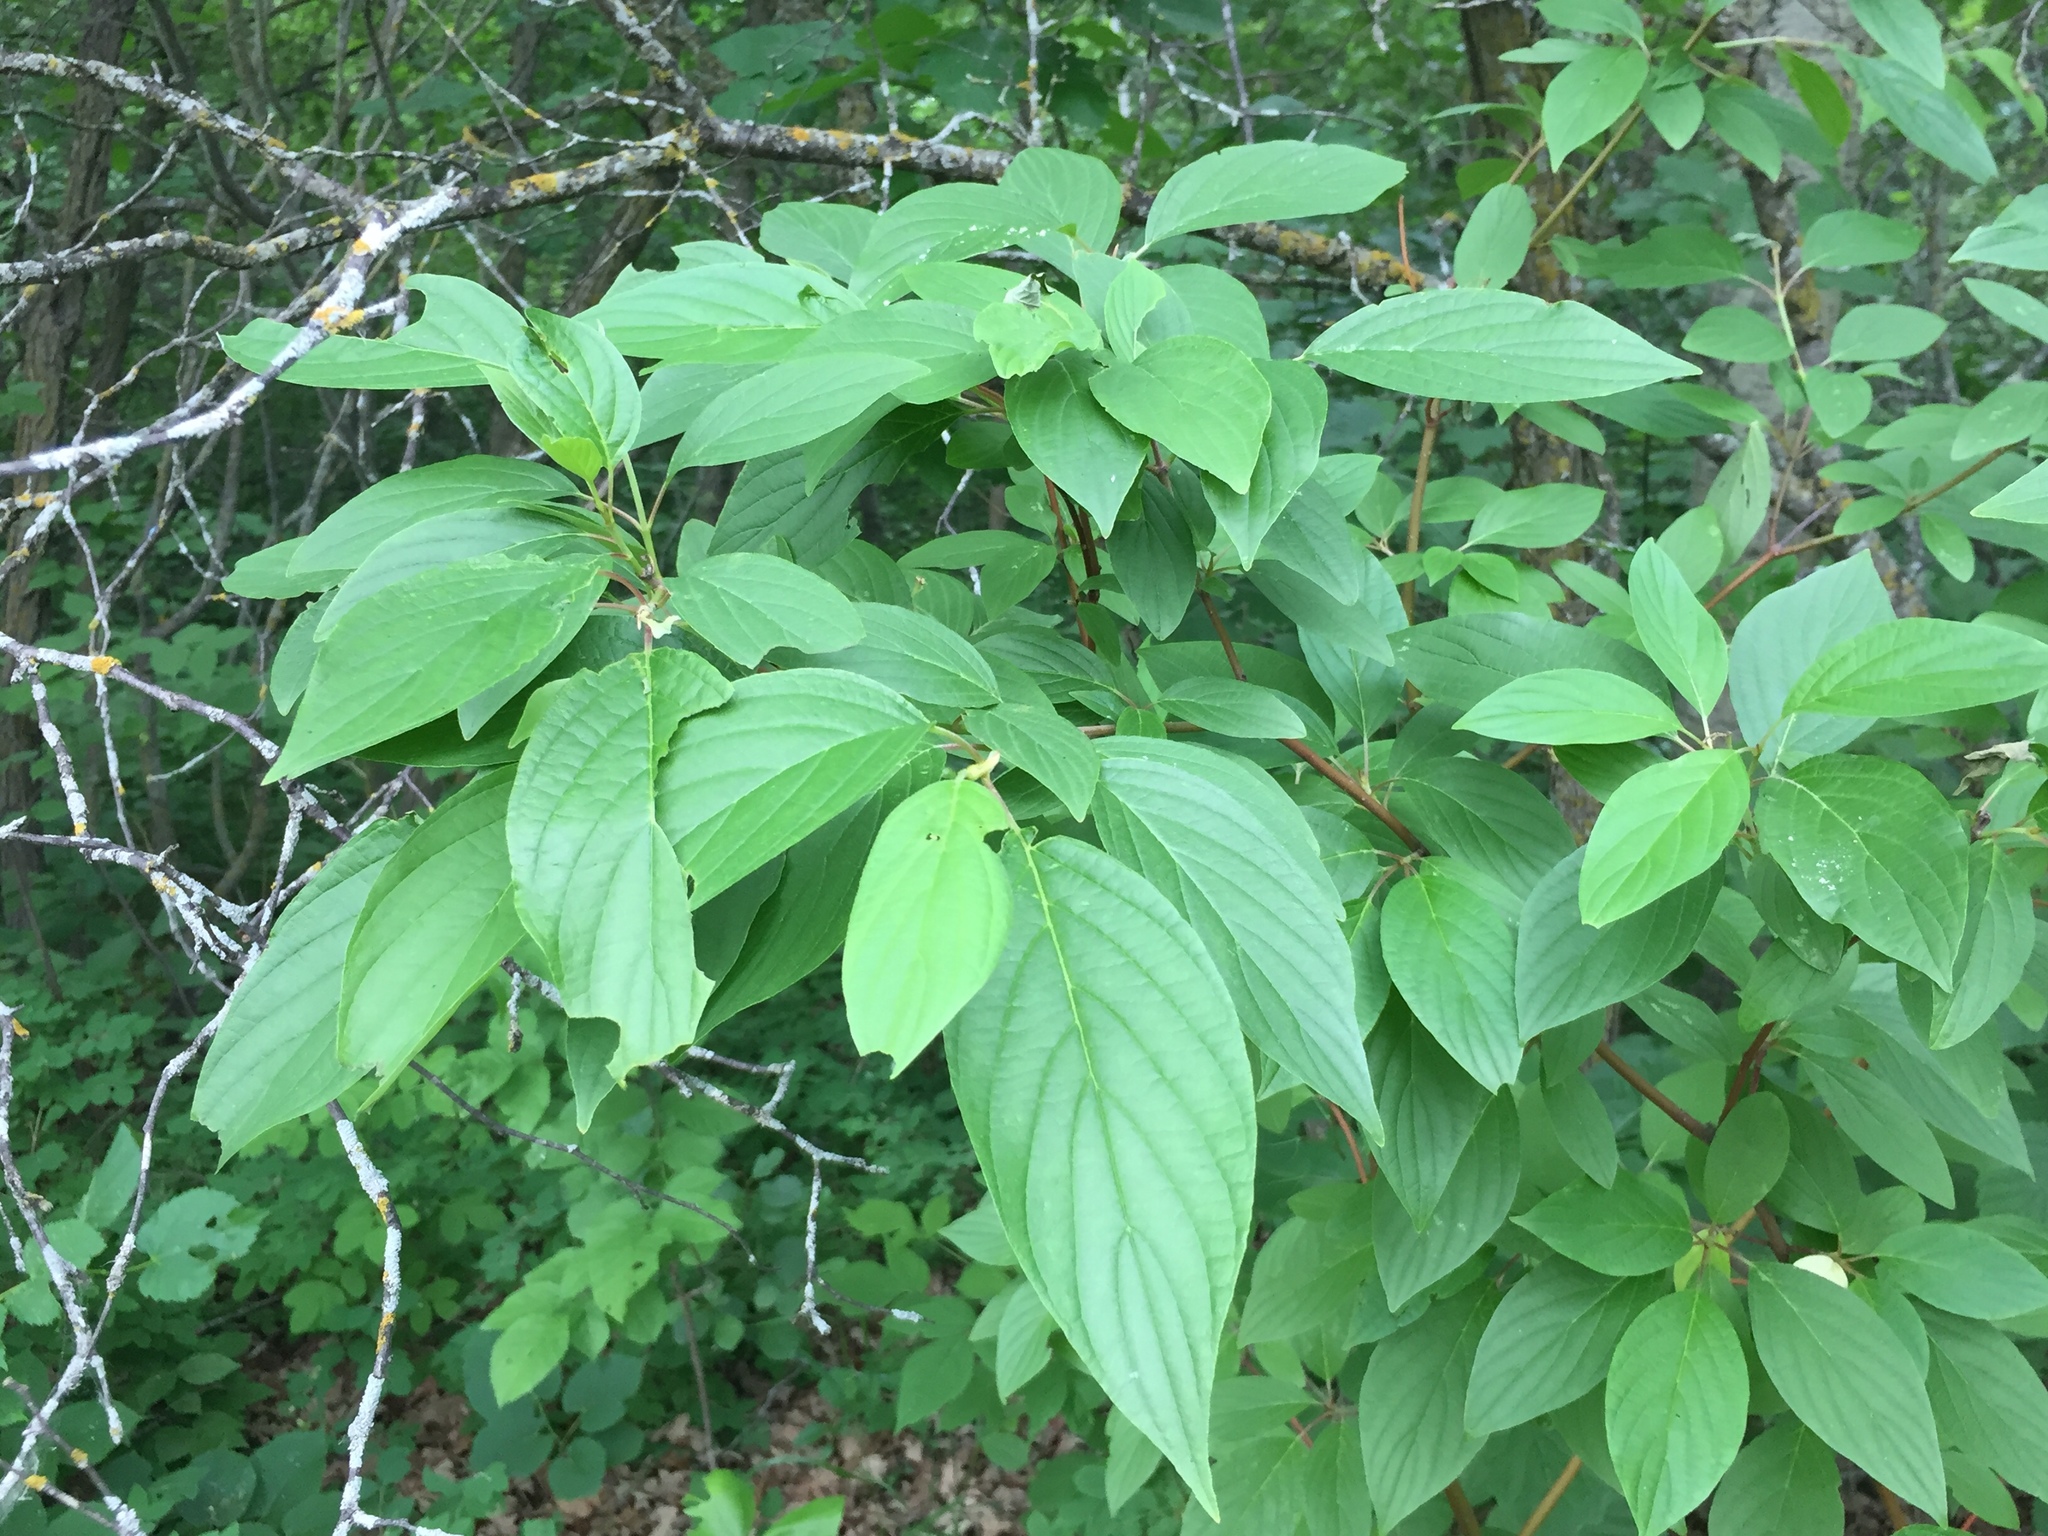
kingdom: Plantae
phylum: Tracheophyta
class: Magnoliopsida
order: Cornales
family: Cornaceae
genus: Cornus
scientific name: Cornus sericea
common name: Red-osier dogwood
